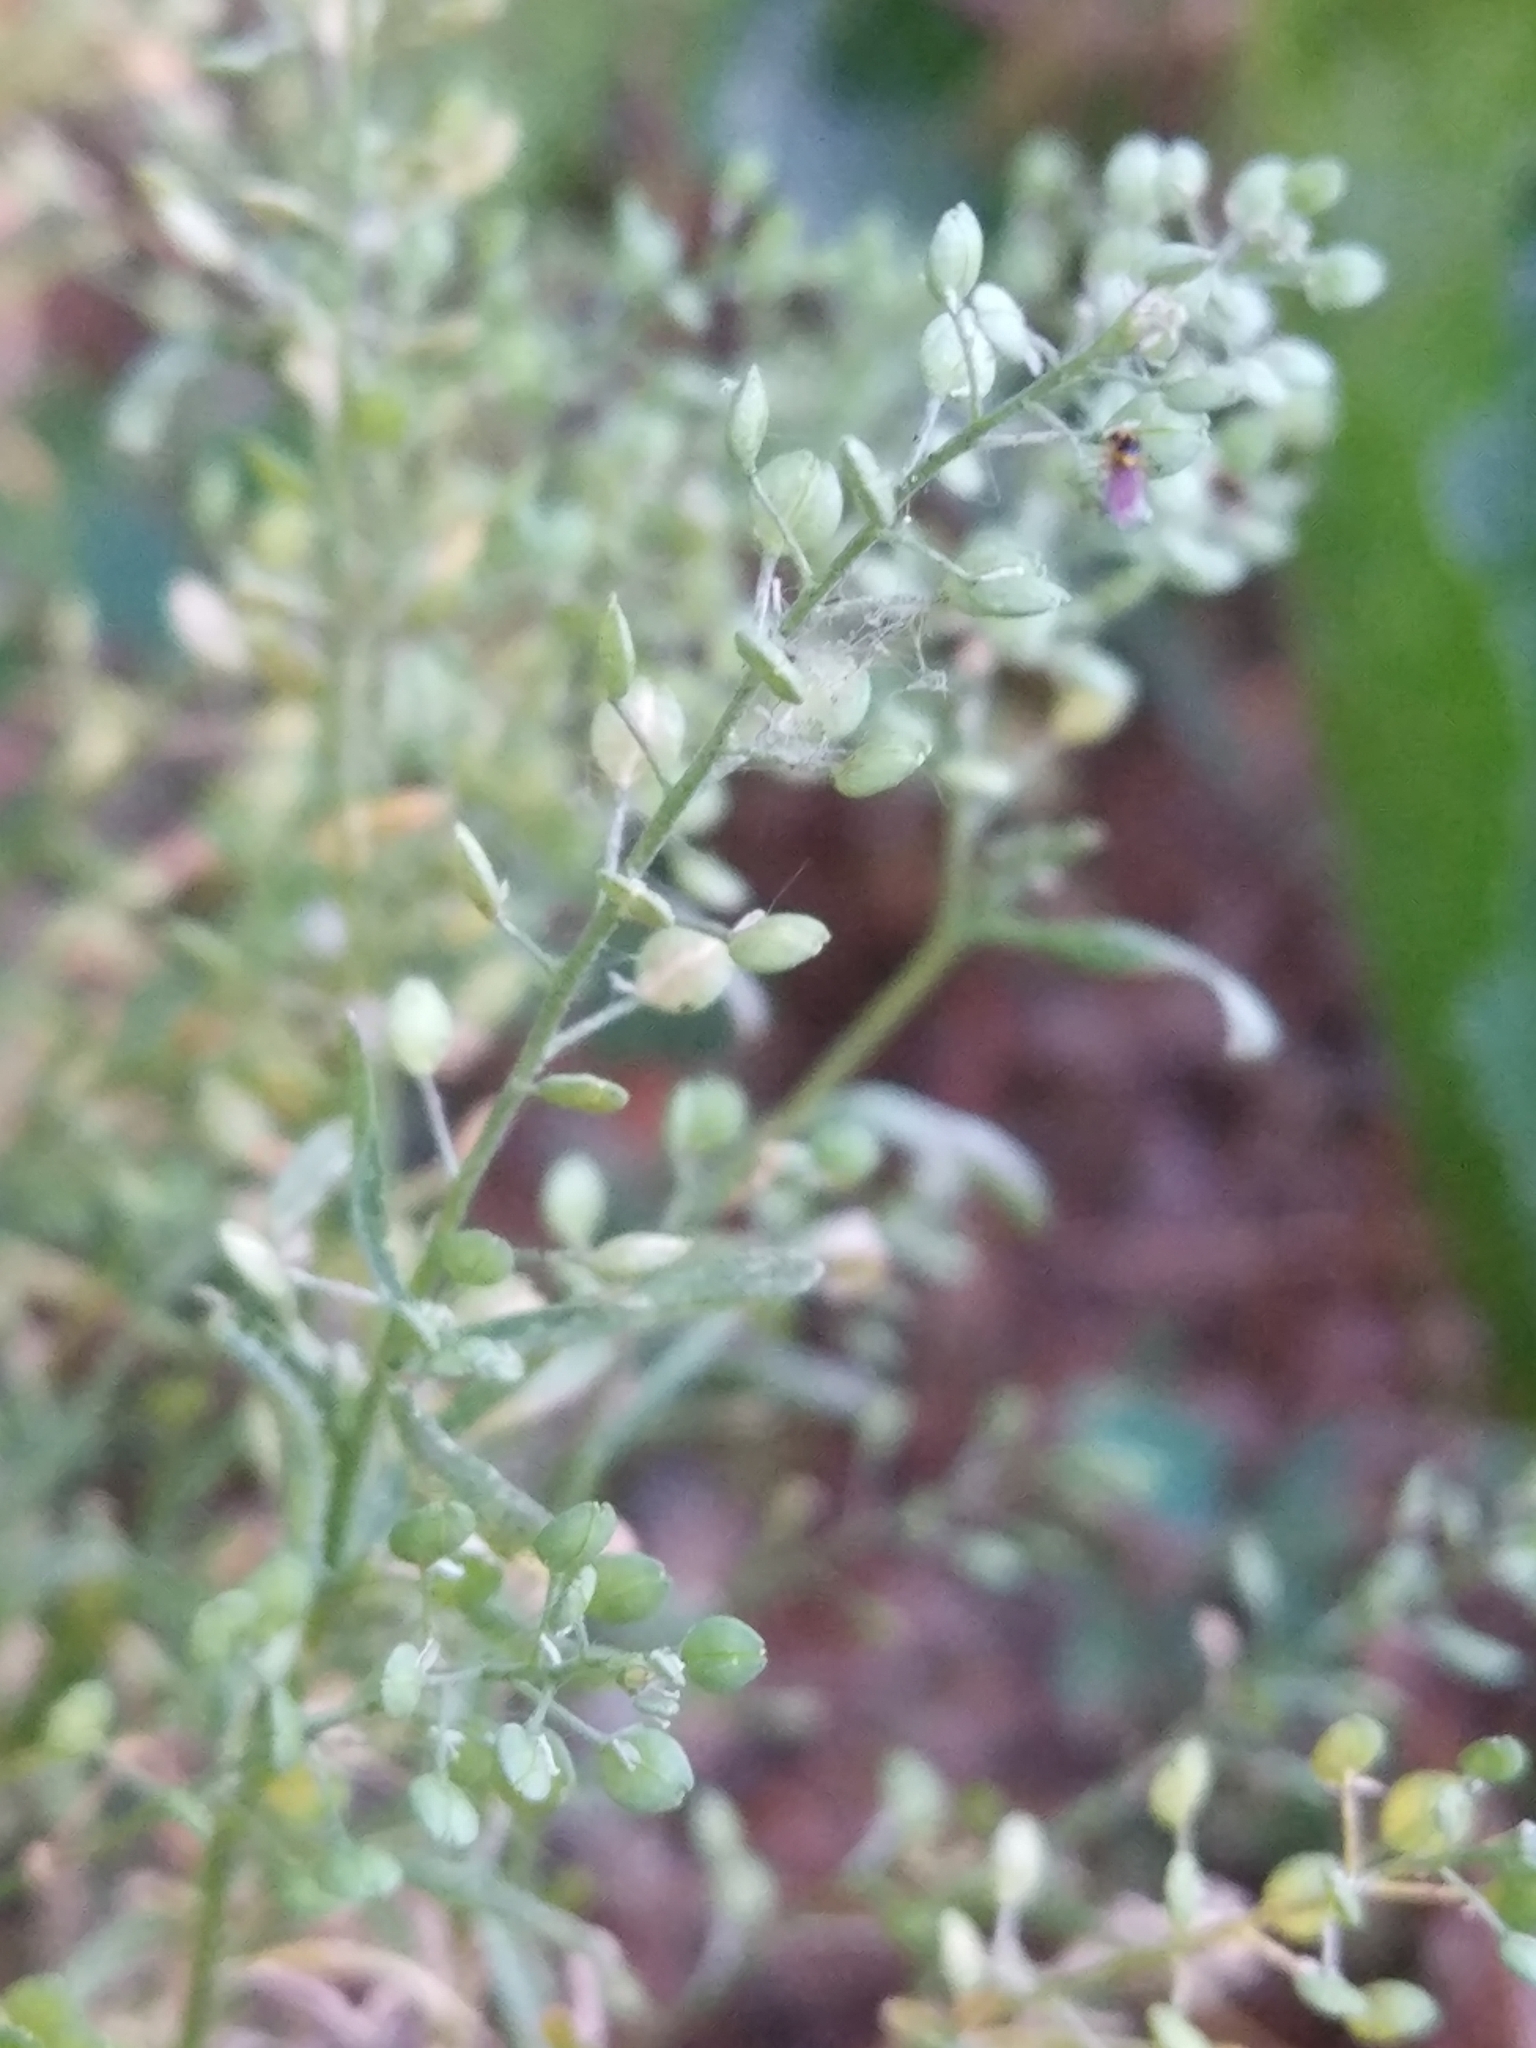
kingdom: Plantae
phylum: Tracheophyta
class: Magnoliopsida
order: Brassicales
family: Brassicaceae
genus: Lepidium
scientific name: Lepidium ruderale
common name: Narrow-leaved pepperwort
